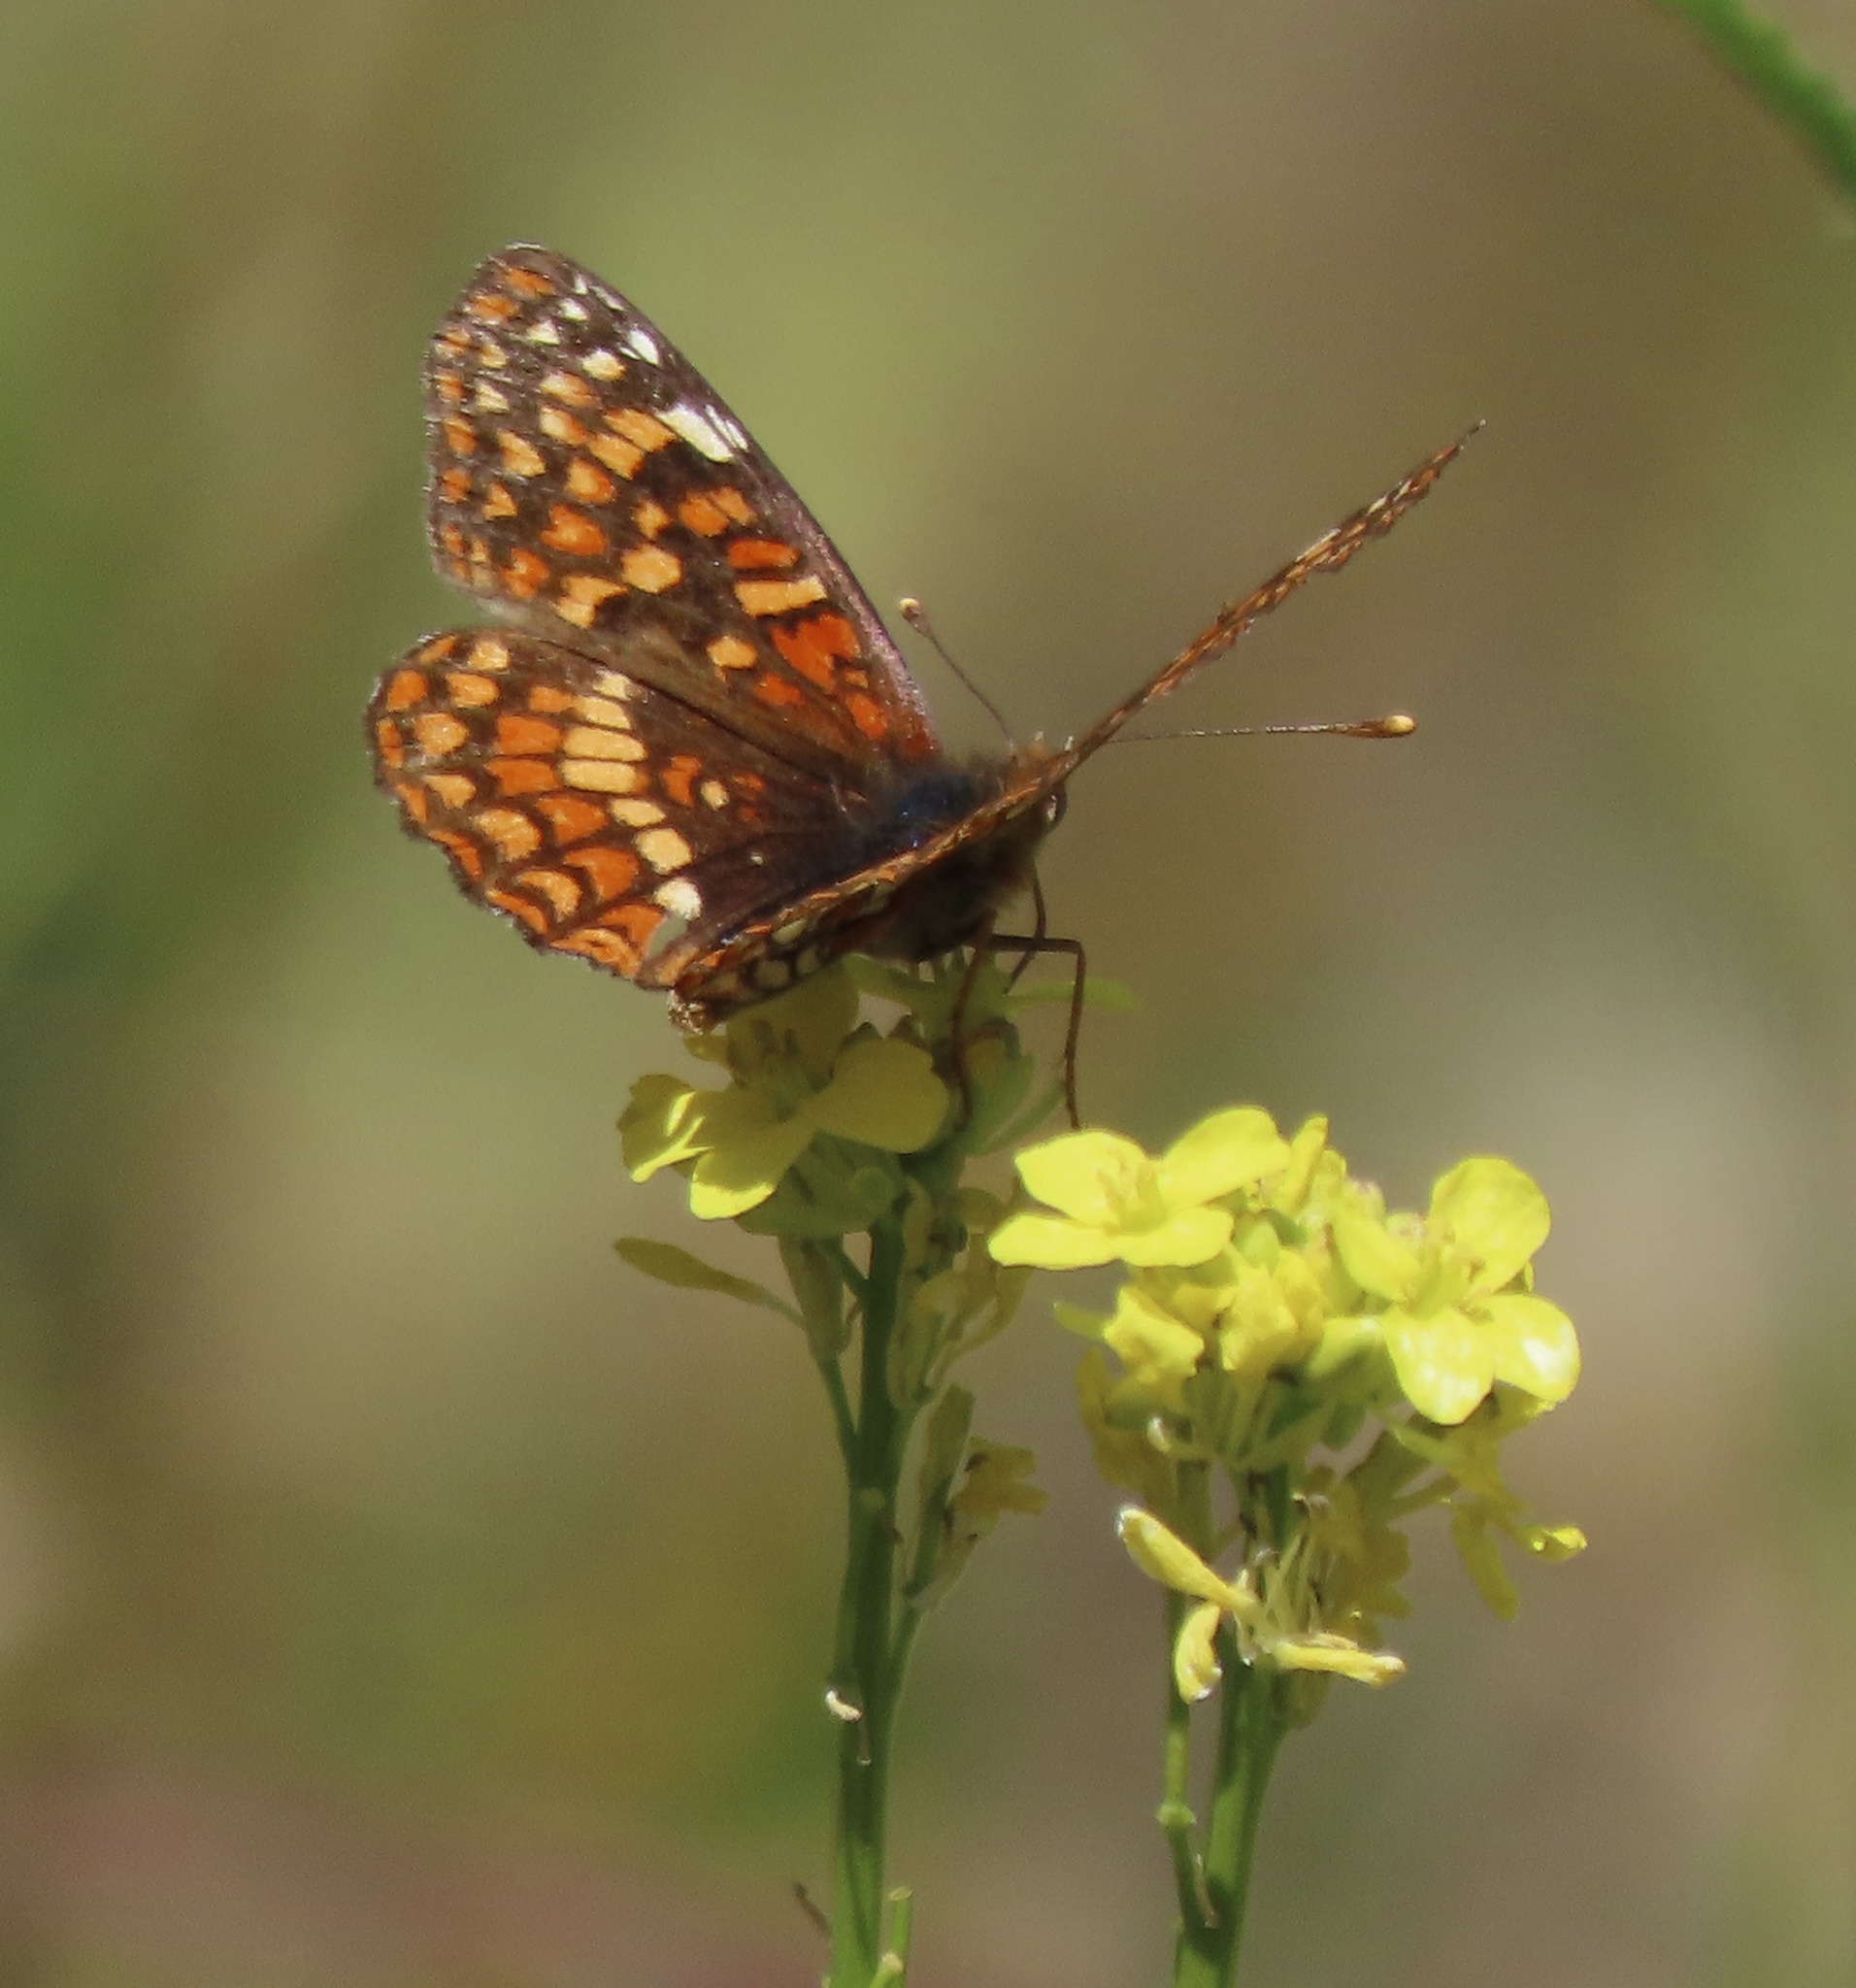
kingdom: Animalia
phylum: Arthropoda
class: Insecta
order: Lepidoptera
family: Nymphalidae
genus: Chlosyne
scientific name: Chlosyne palla
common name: Northern checkerspot
